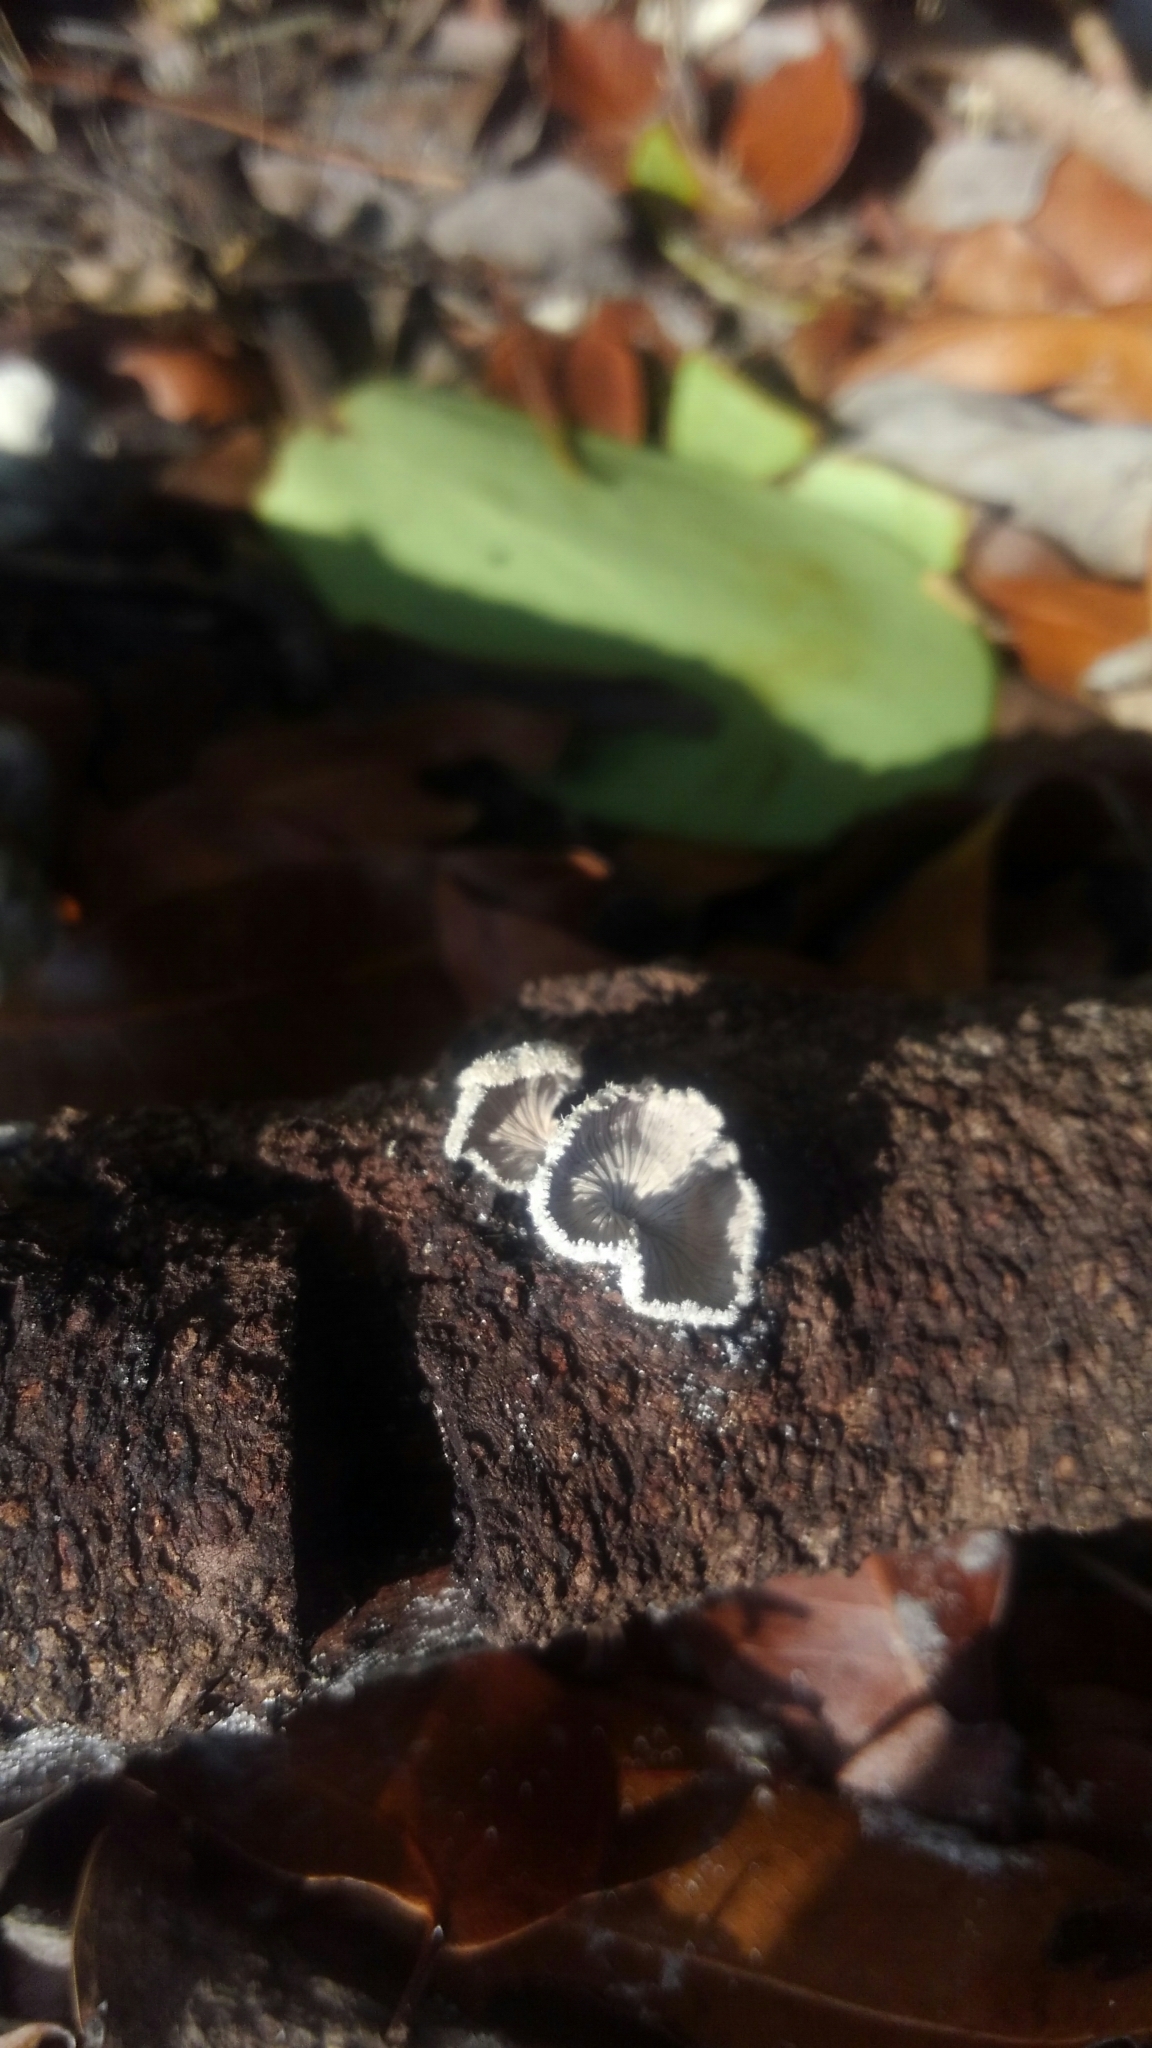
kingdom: Fungi
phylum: Basidiomycota
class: Agaricomycetes
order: Agaricales
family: Schizophyllaceae
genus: Schizophyllum
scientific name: Schizophyllum commune
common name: Common porecrust
